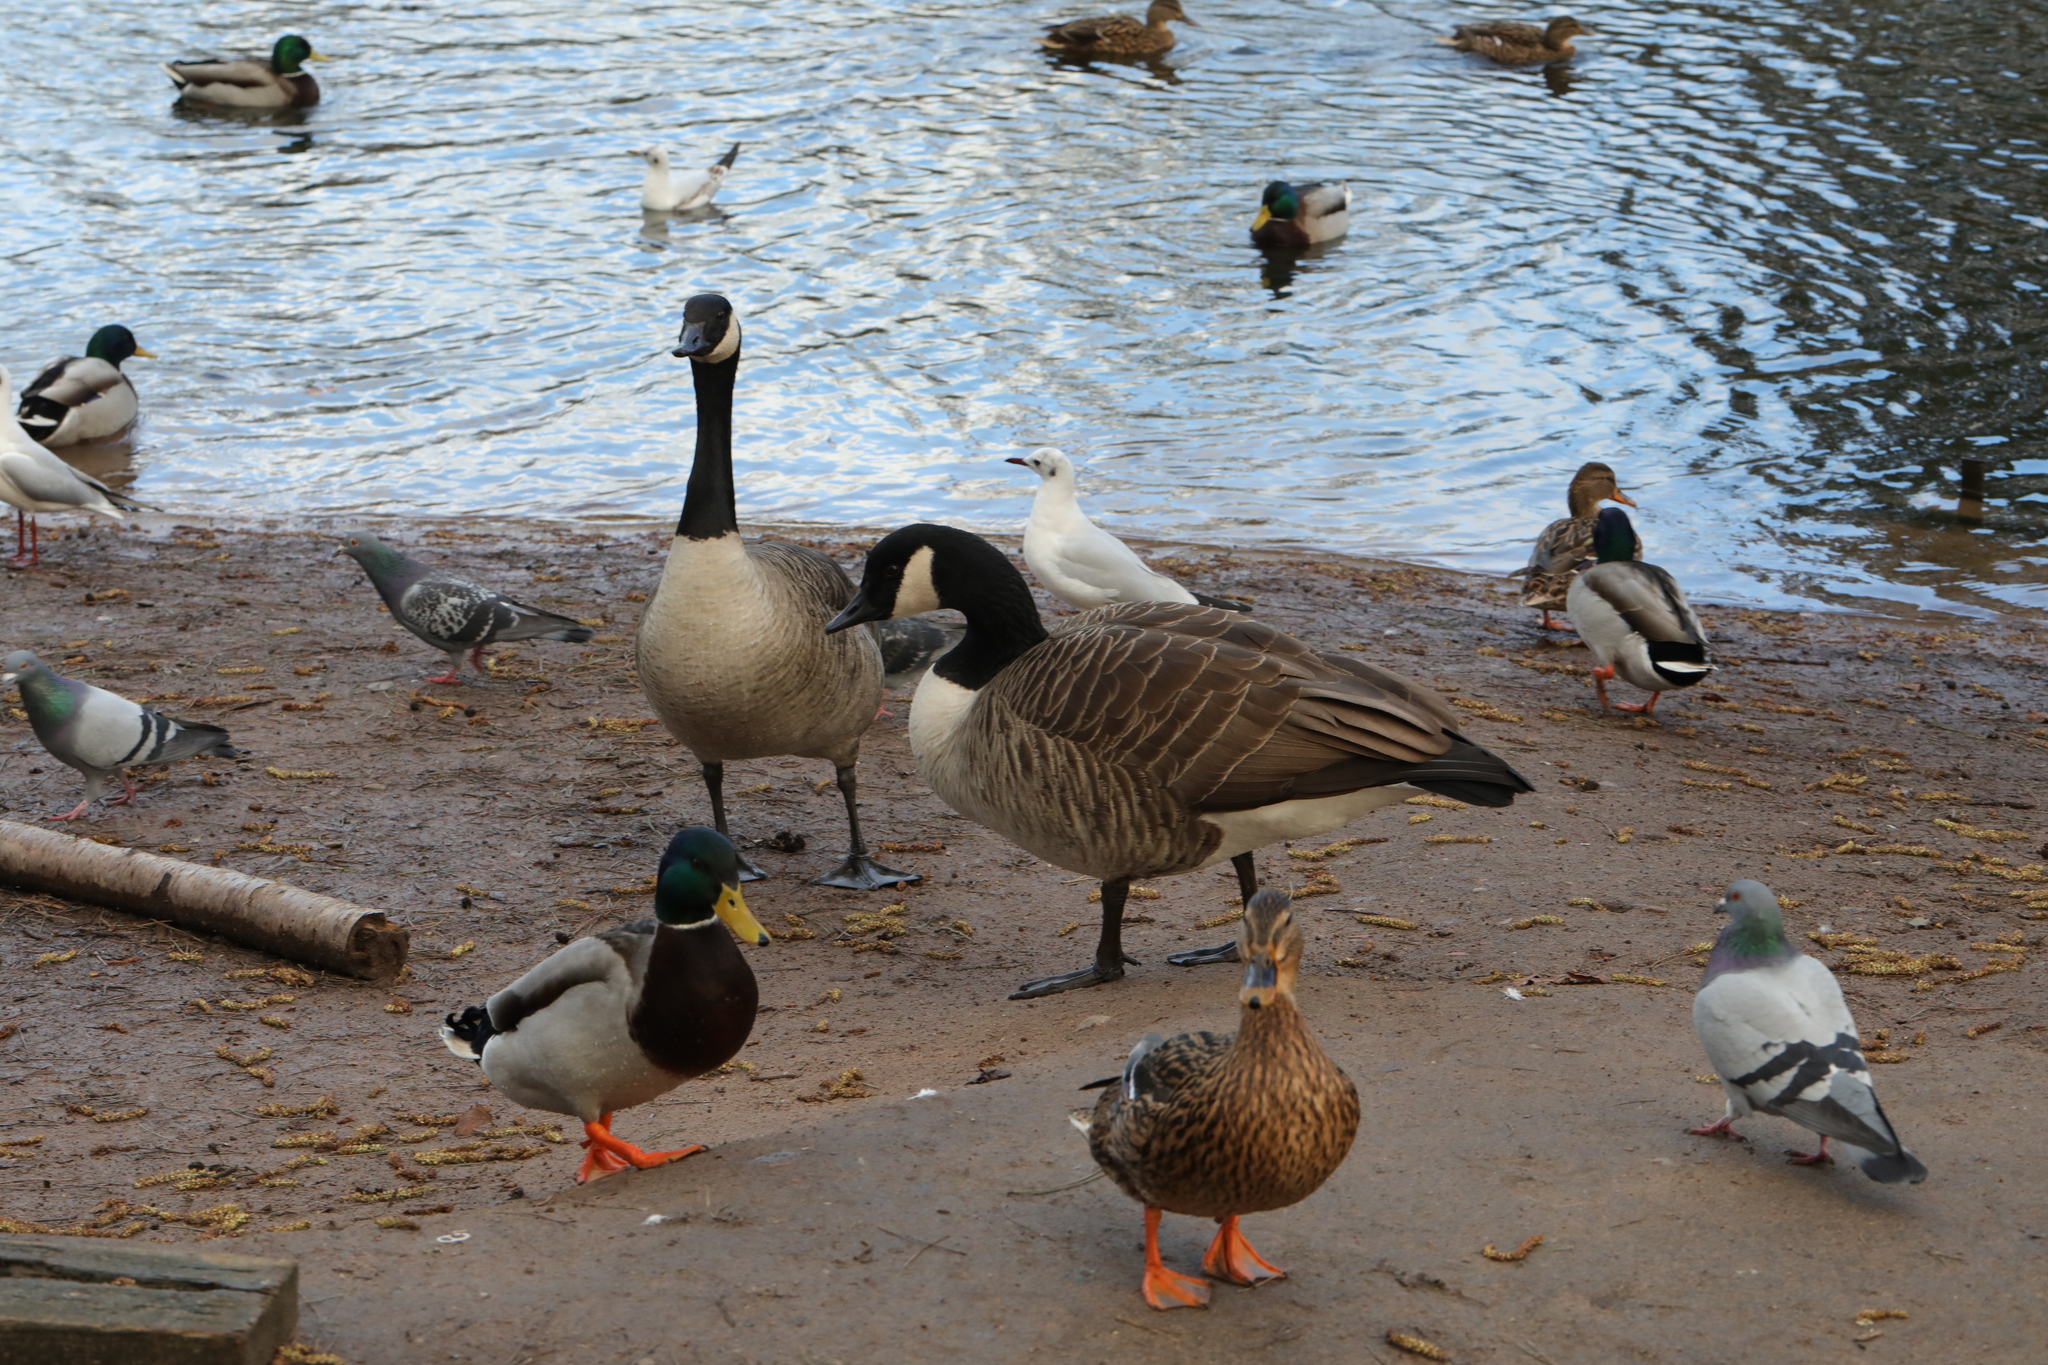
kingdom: Animalia
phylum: Chordata
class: Aves
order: Anseriformes
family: Anatidae
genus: Branta
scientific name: Branta canadensis
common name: Canada goose
